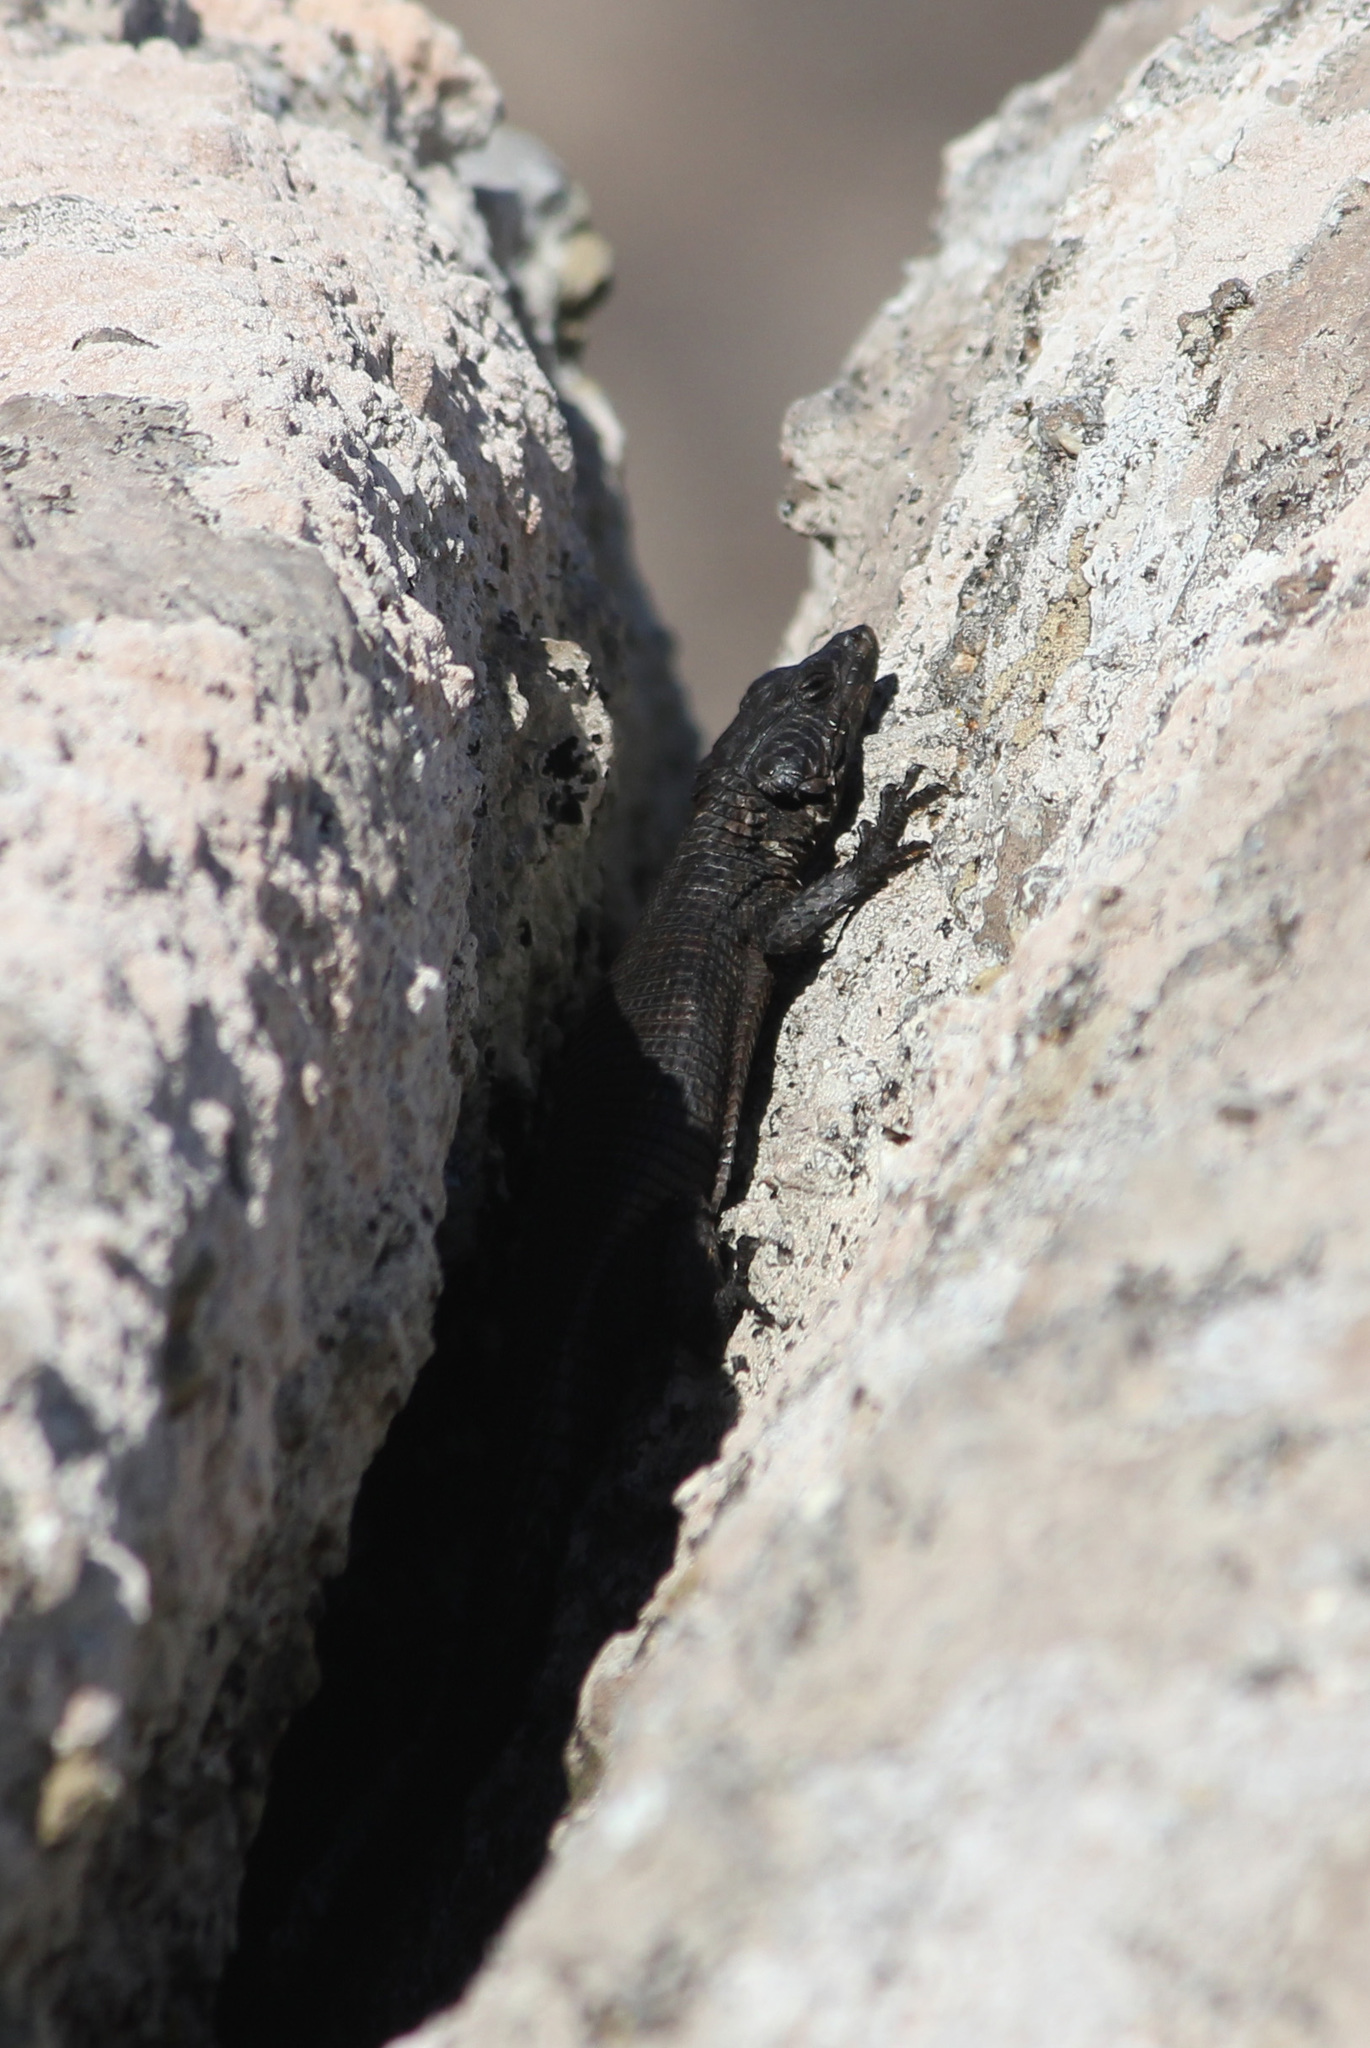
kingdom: Animalia
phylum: Chordata
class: Squamata
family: Cordylidae
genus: Karusasaurus
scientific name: Karusasaurus polyzonus
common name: Karoo girdled lizard
